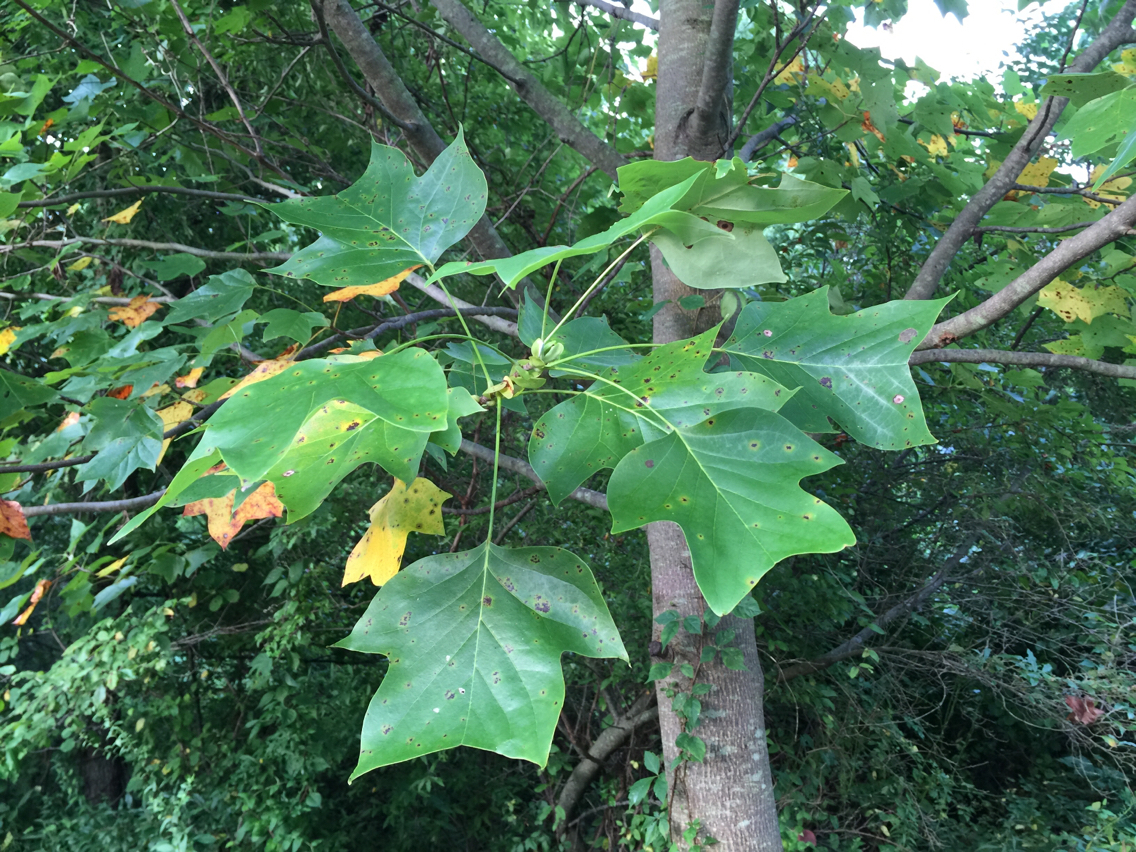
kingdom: Plantae
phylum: Tracheophyta
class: Magnoliopsida
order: Magnoliales
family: Magnoliaceae
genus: Liriodendron
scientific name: Liriodendron tulipifera
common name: Tulip tree
